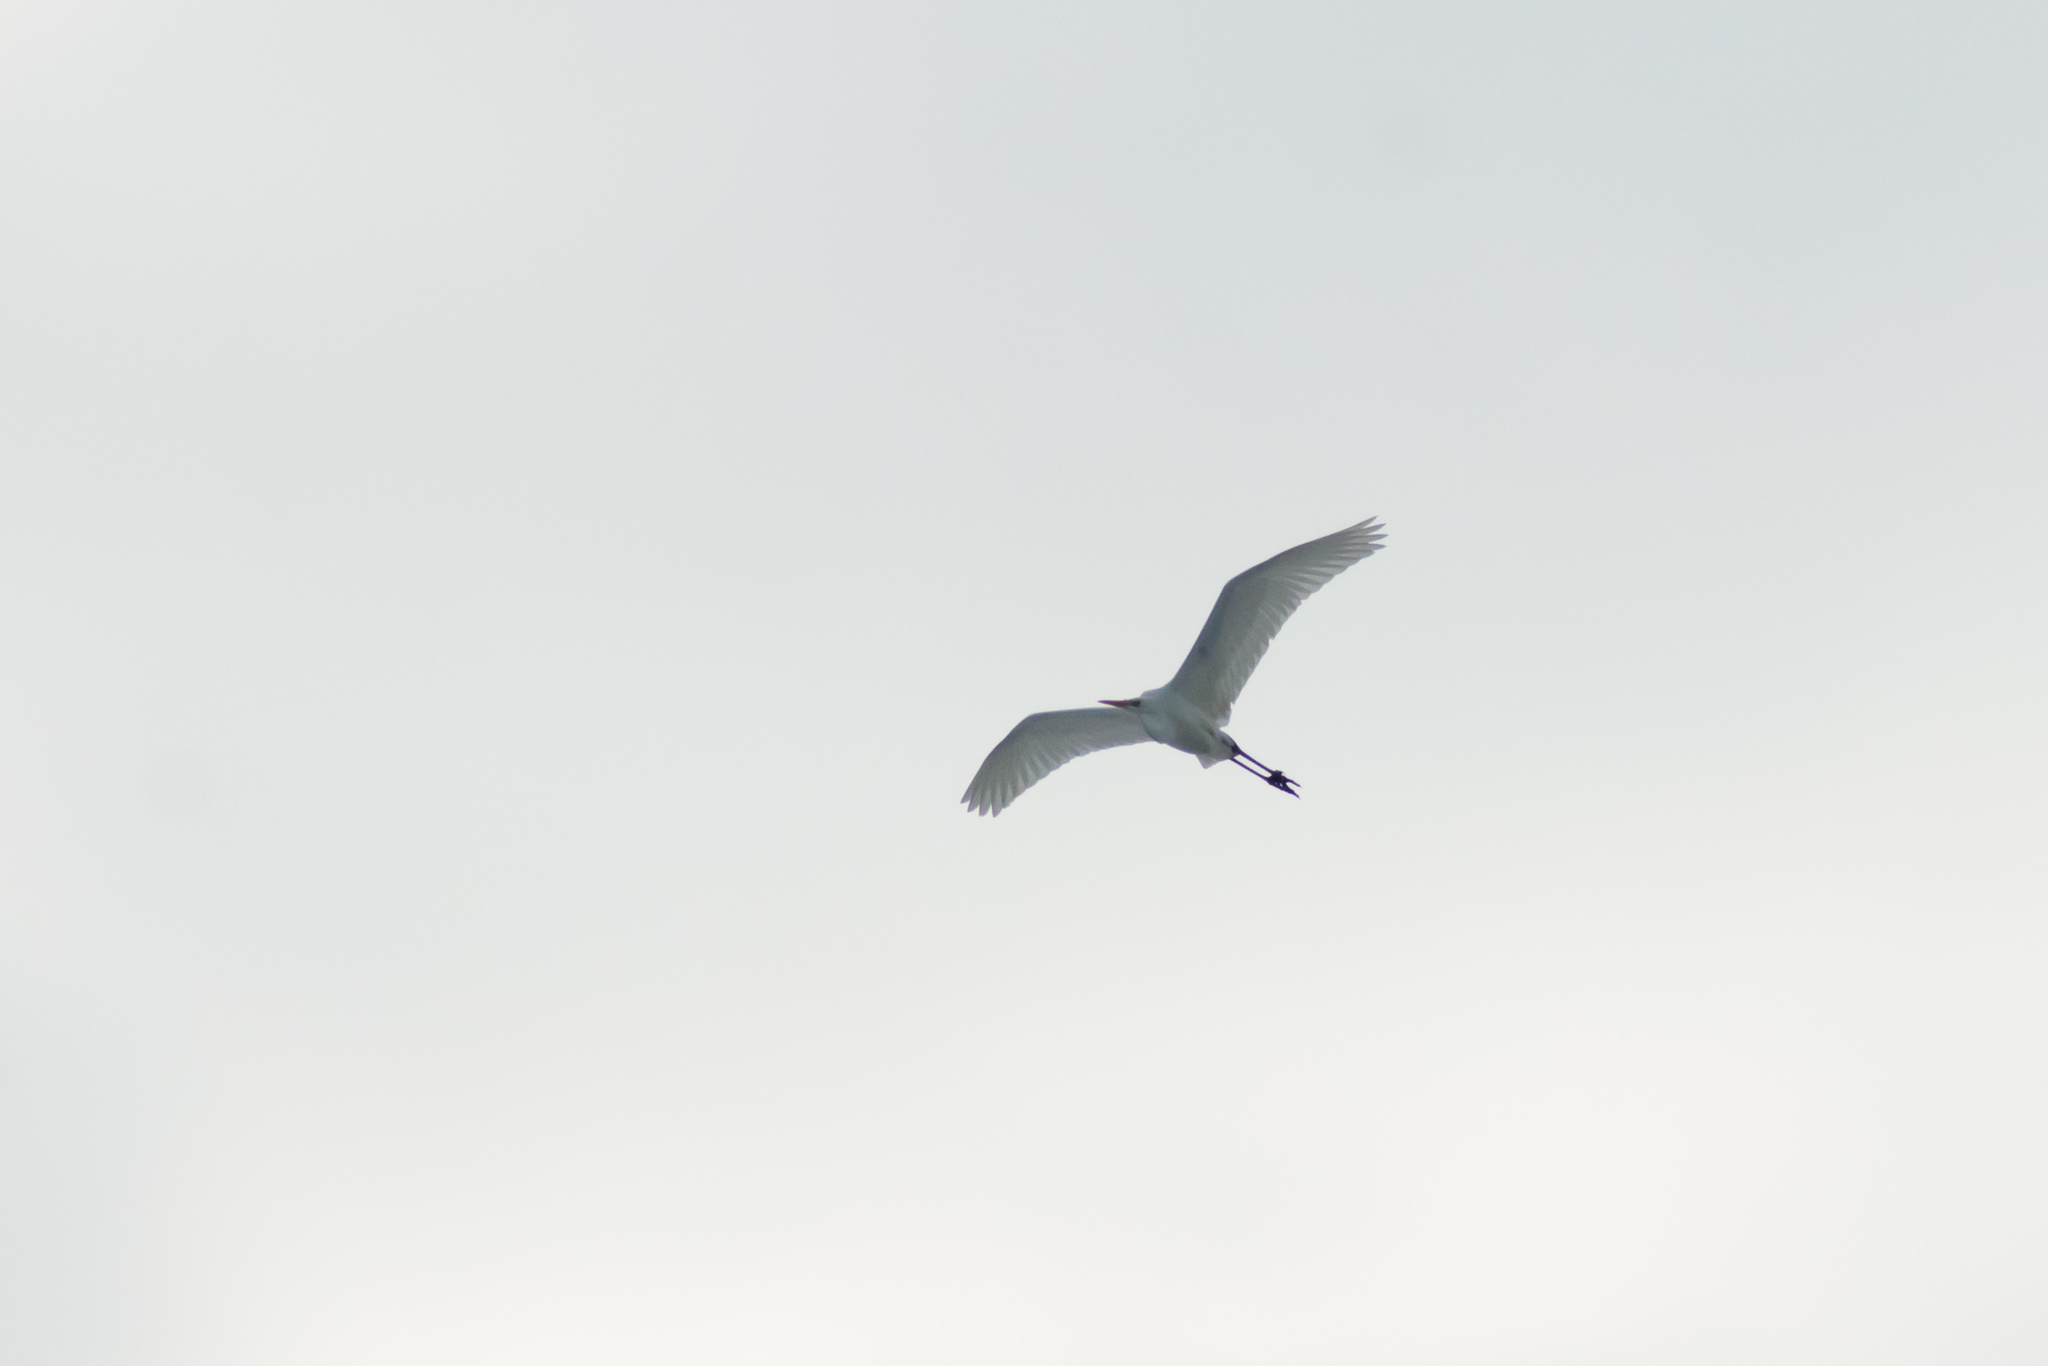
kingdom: Animalia
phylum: Chordata
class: Aves
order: Pelecaniformes
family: Ardeidae
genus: Ardea
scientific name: Ardea alba
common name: Great egret
